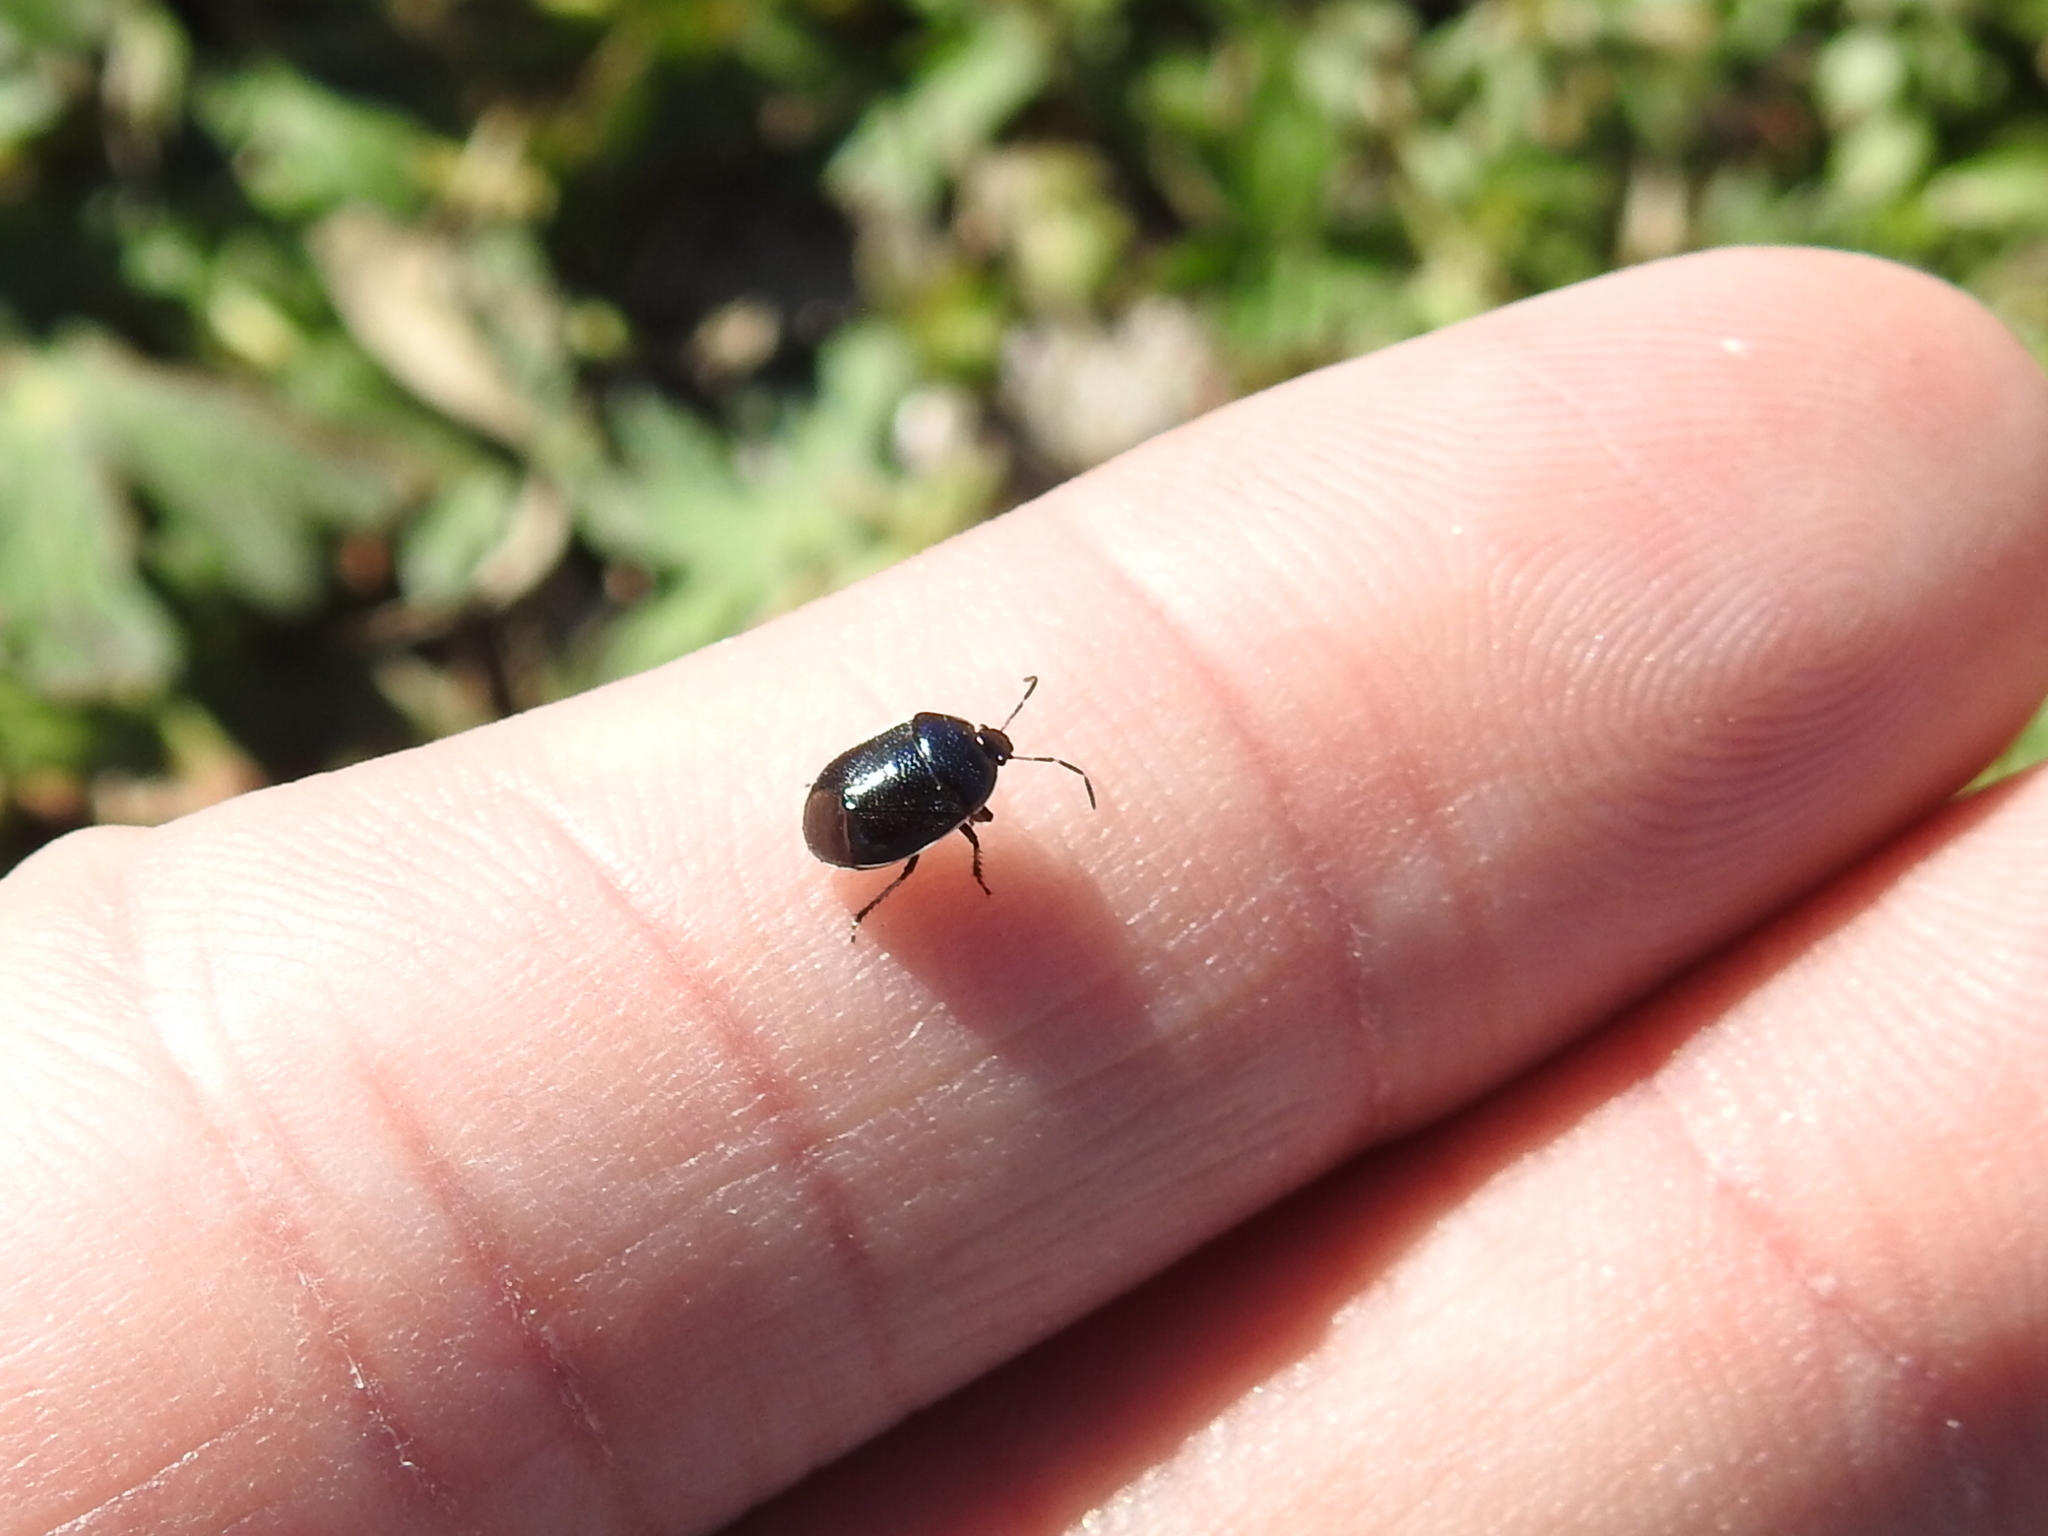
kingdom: Animalia
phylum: Arthropoda
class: Insecta
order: Hemiptera
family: Cydnidae
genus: Sehirus
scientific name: Sehirus cinctus
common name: White-margined burrower bug
